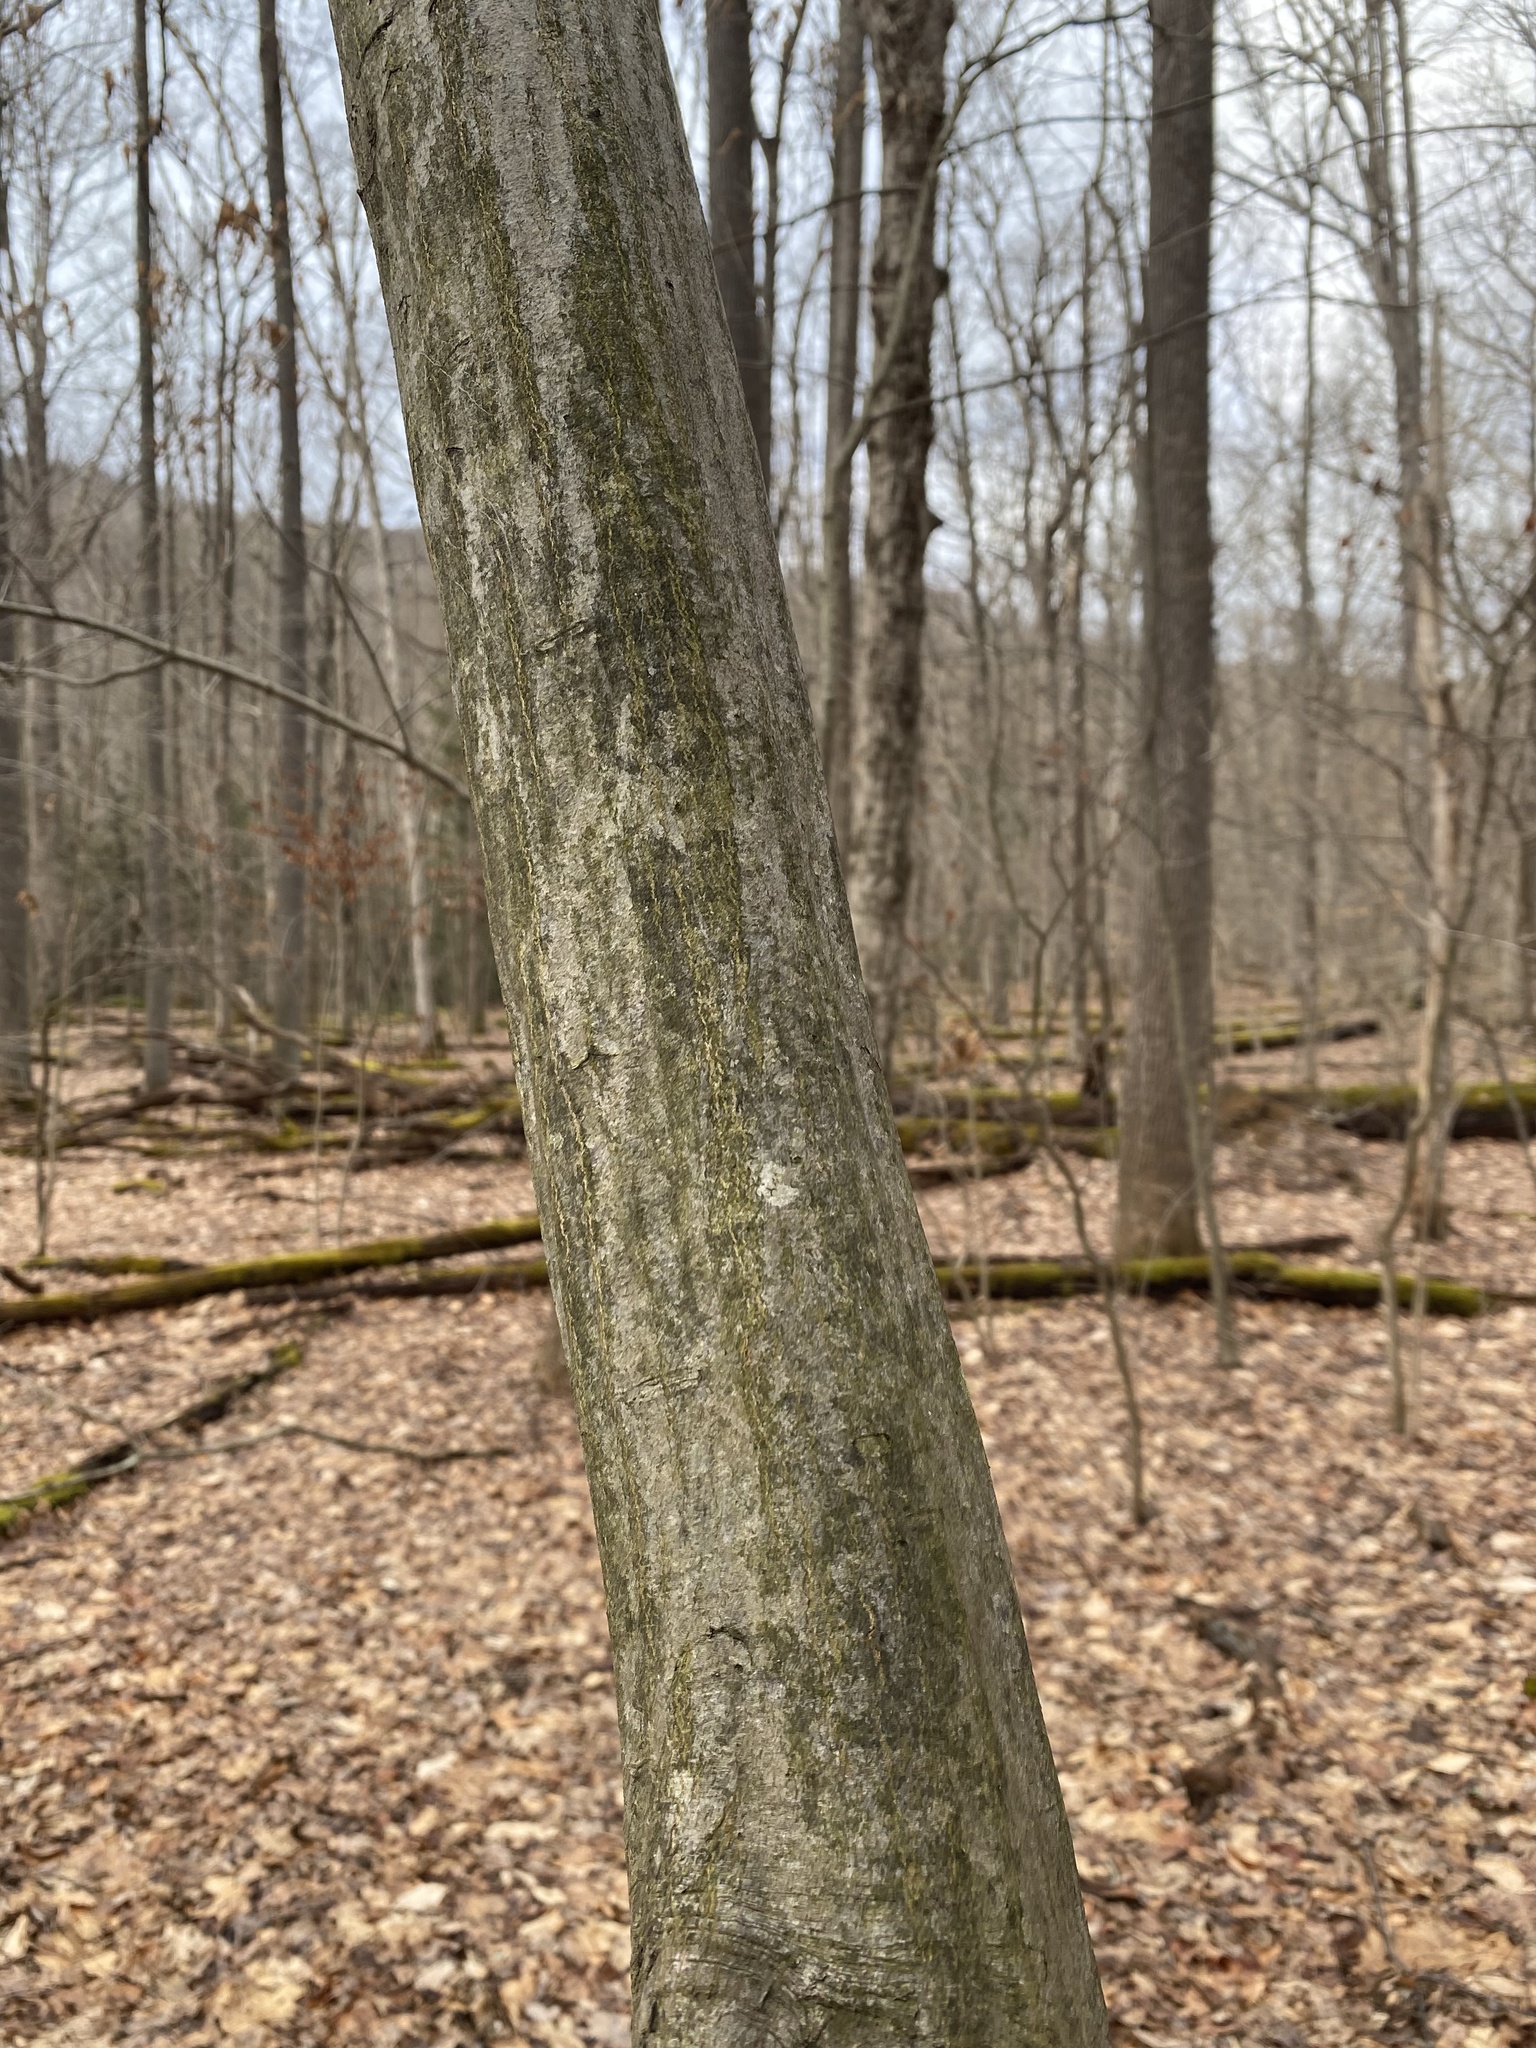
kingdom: Plantae
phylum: Tracheophyta
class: Magnoliopsida
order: Fagales
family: Betulaceae
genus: Carpinus
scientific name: Carpinus caroliniana
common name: American hornbeam
